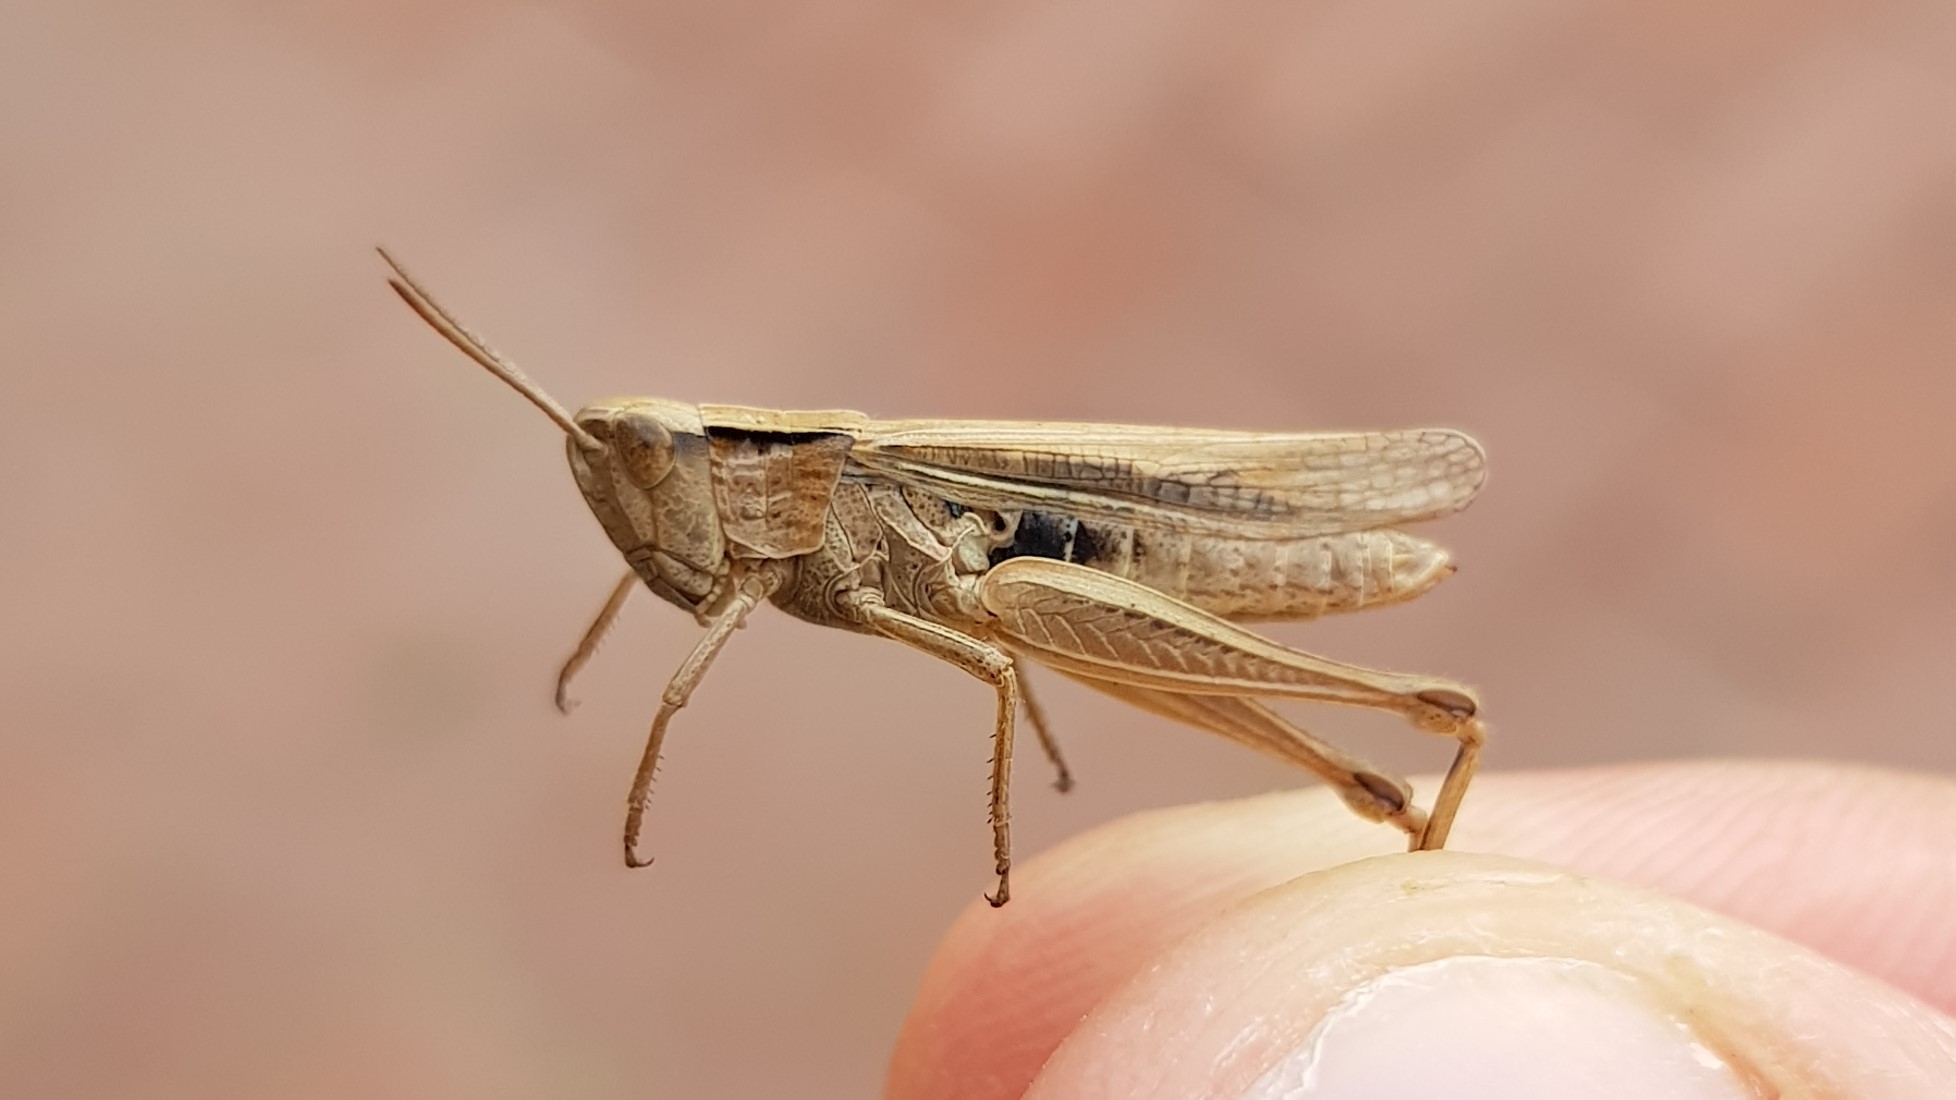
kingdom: Animalia
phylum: Arthropoda
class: Insecta
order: Orthoptera
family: Acrididae
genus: Chorthippus
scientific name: Chorthippus albomarginatus
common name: Lesser marsh grasshopper
